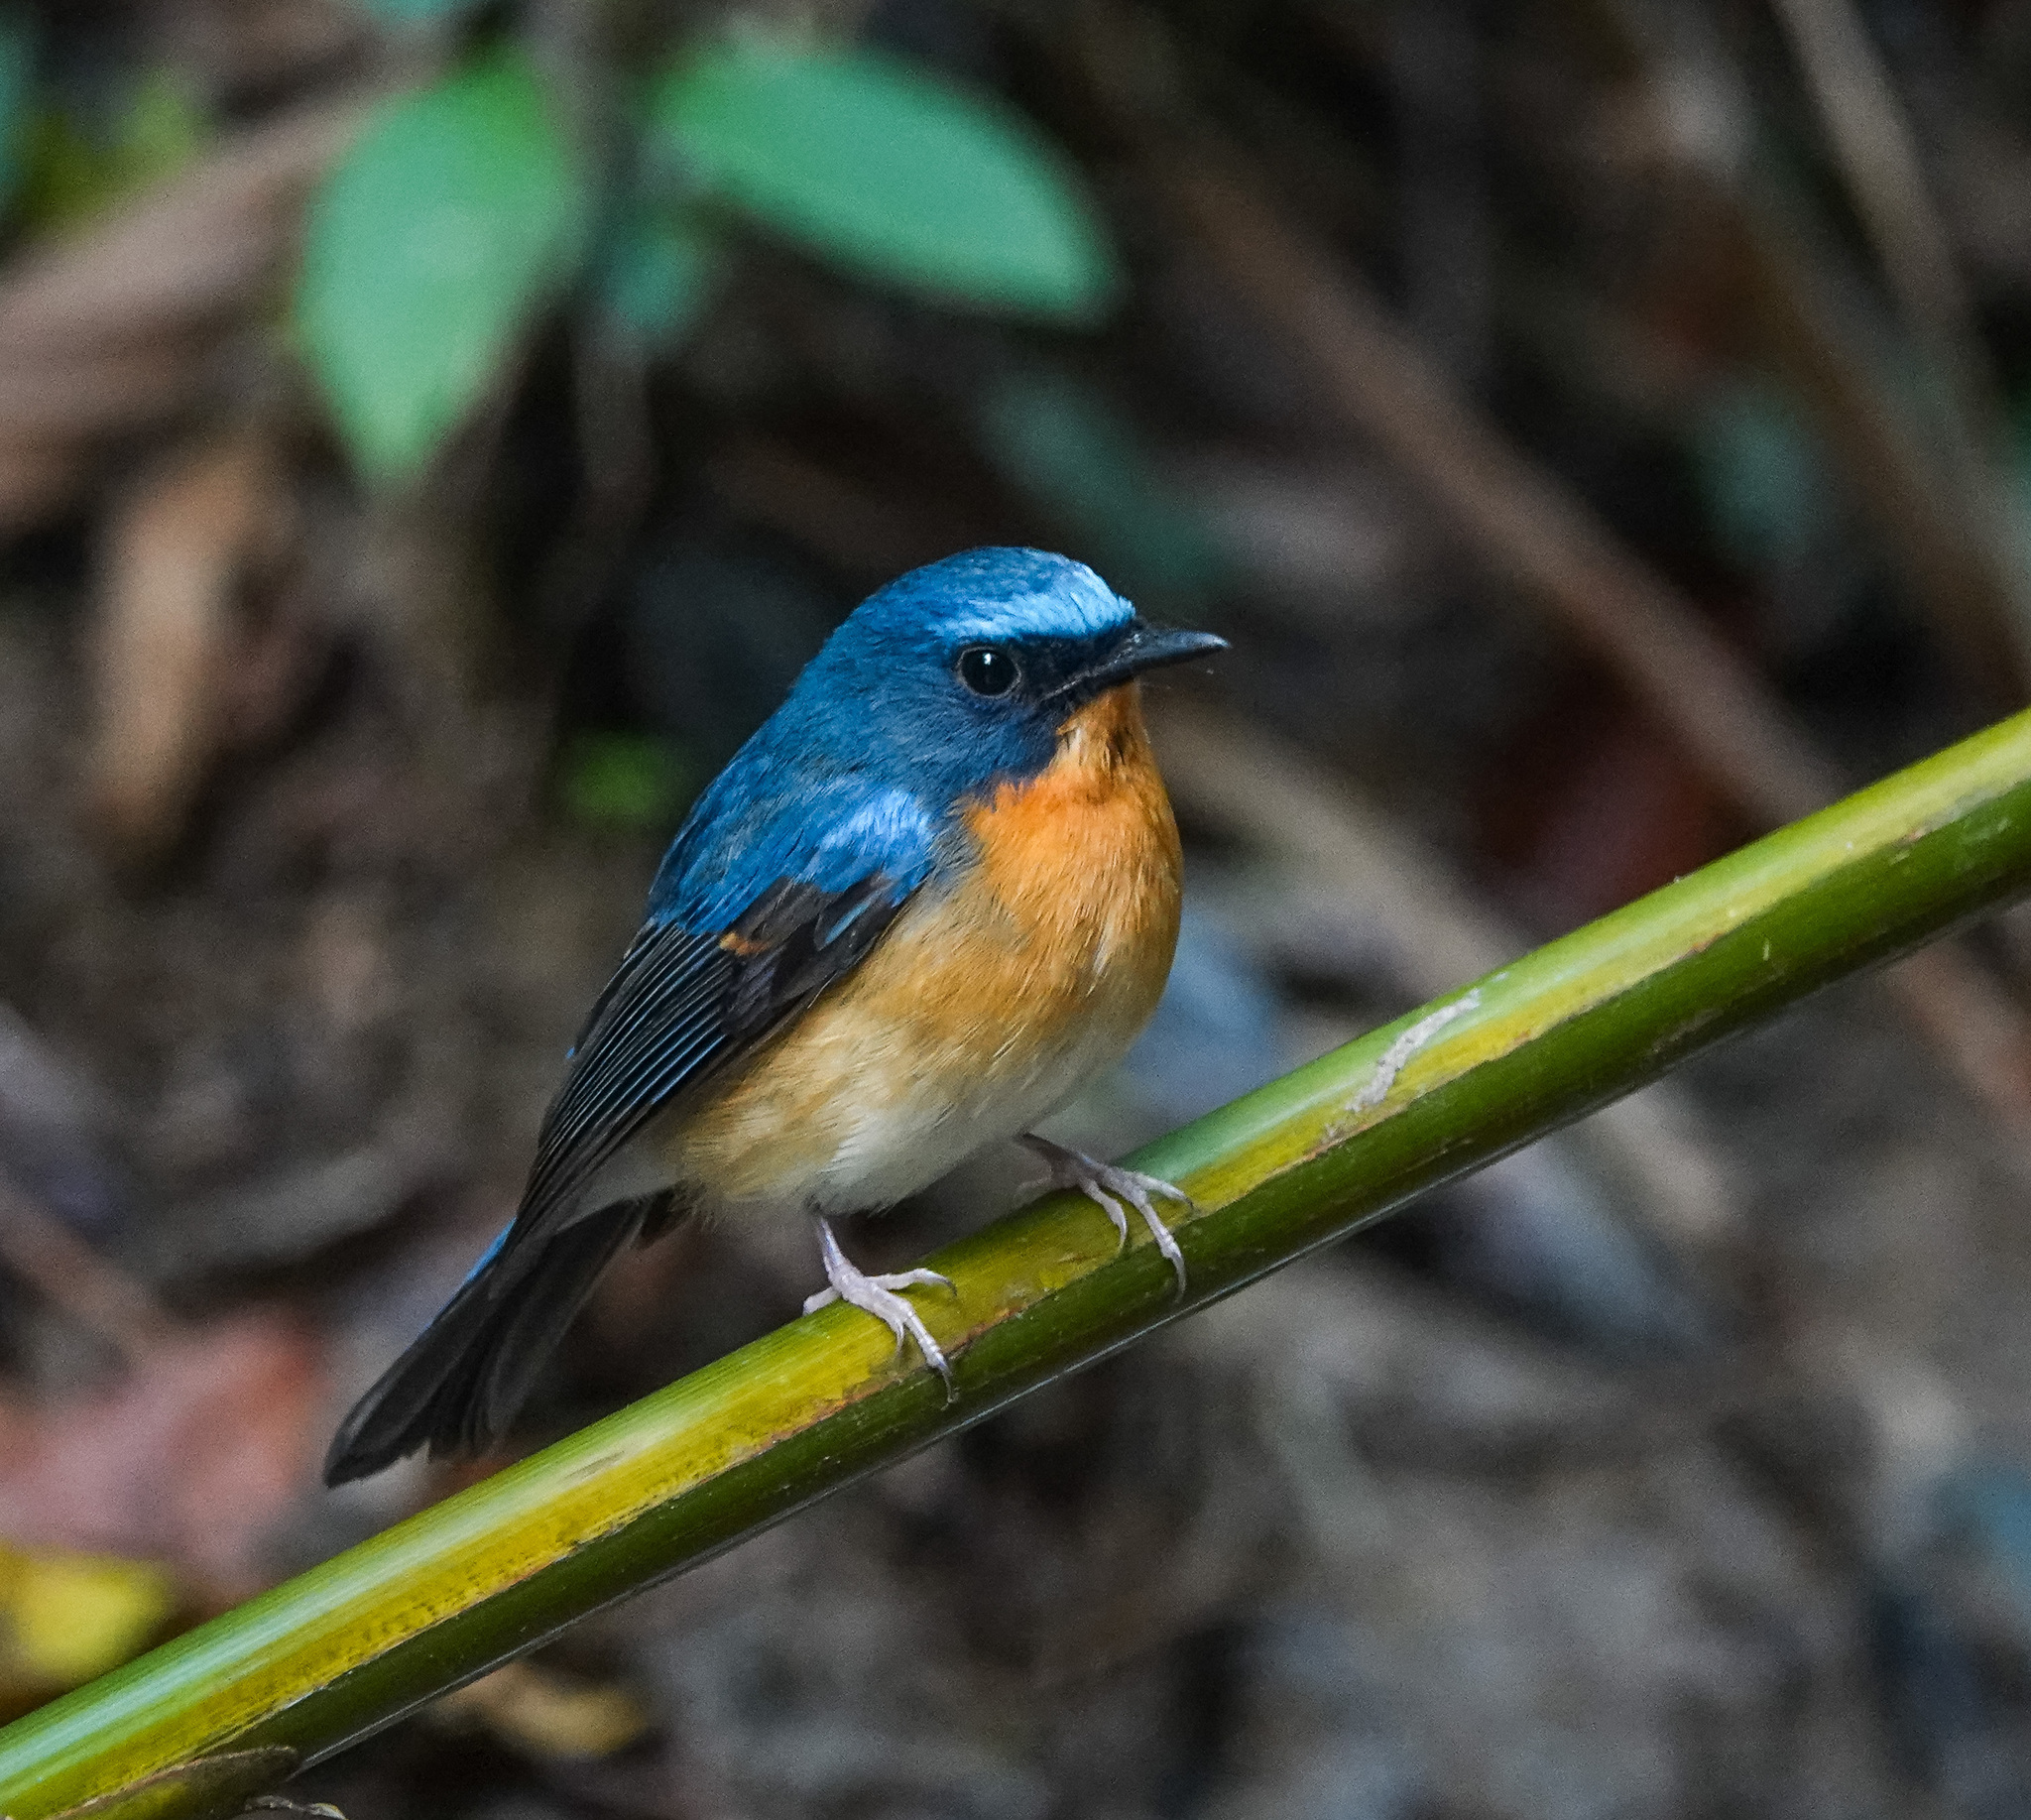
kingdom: Animalia
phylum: Chordata
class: Aves
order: Passeriformes
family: Muscicapidae
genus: Cyornis
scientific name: Cyornis whitei
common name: Hill blue flycatcher
